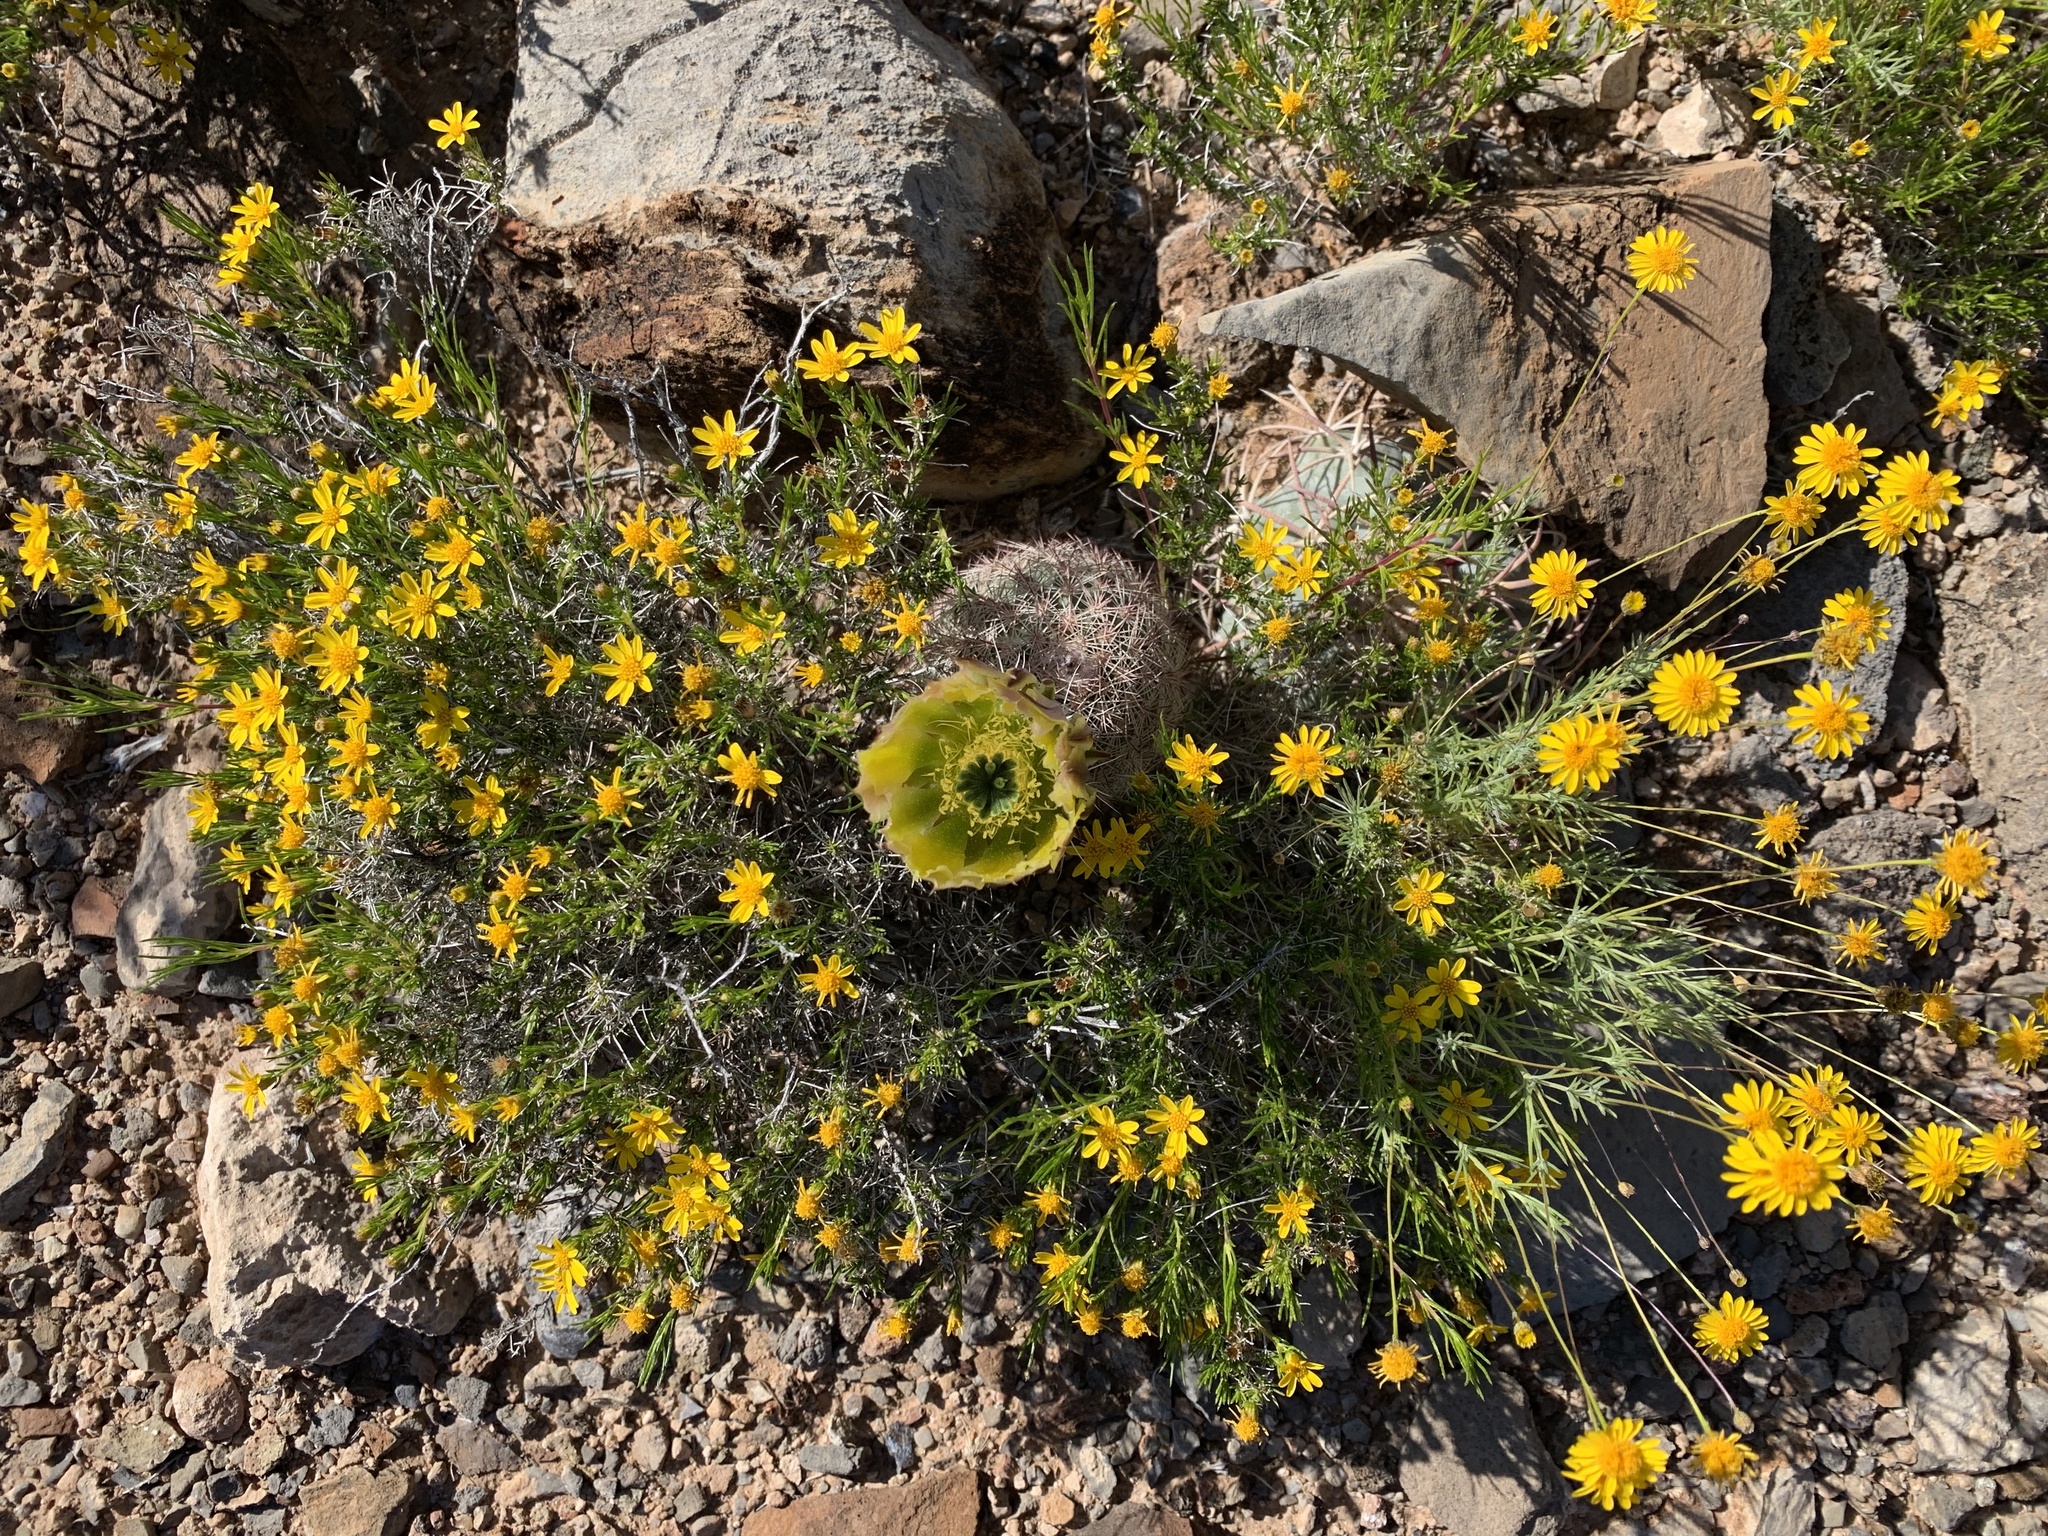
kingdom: Plantae
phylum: Tracheophyta
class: Magnoliopsida
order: Asterales
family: Asteraceae
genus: Thymophylla
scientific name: Thymophylla pentachaeta
